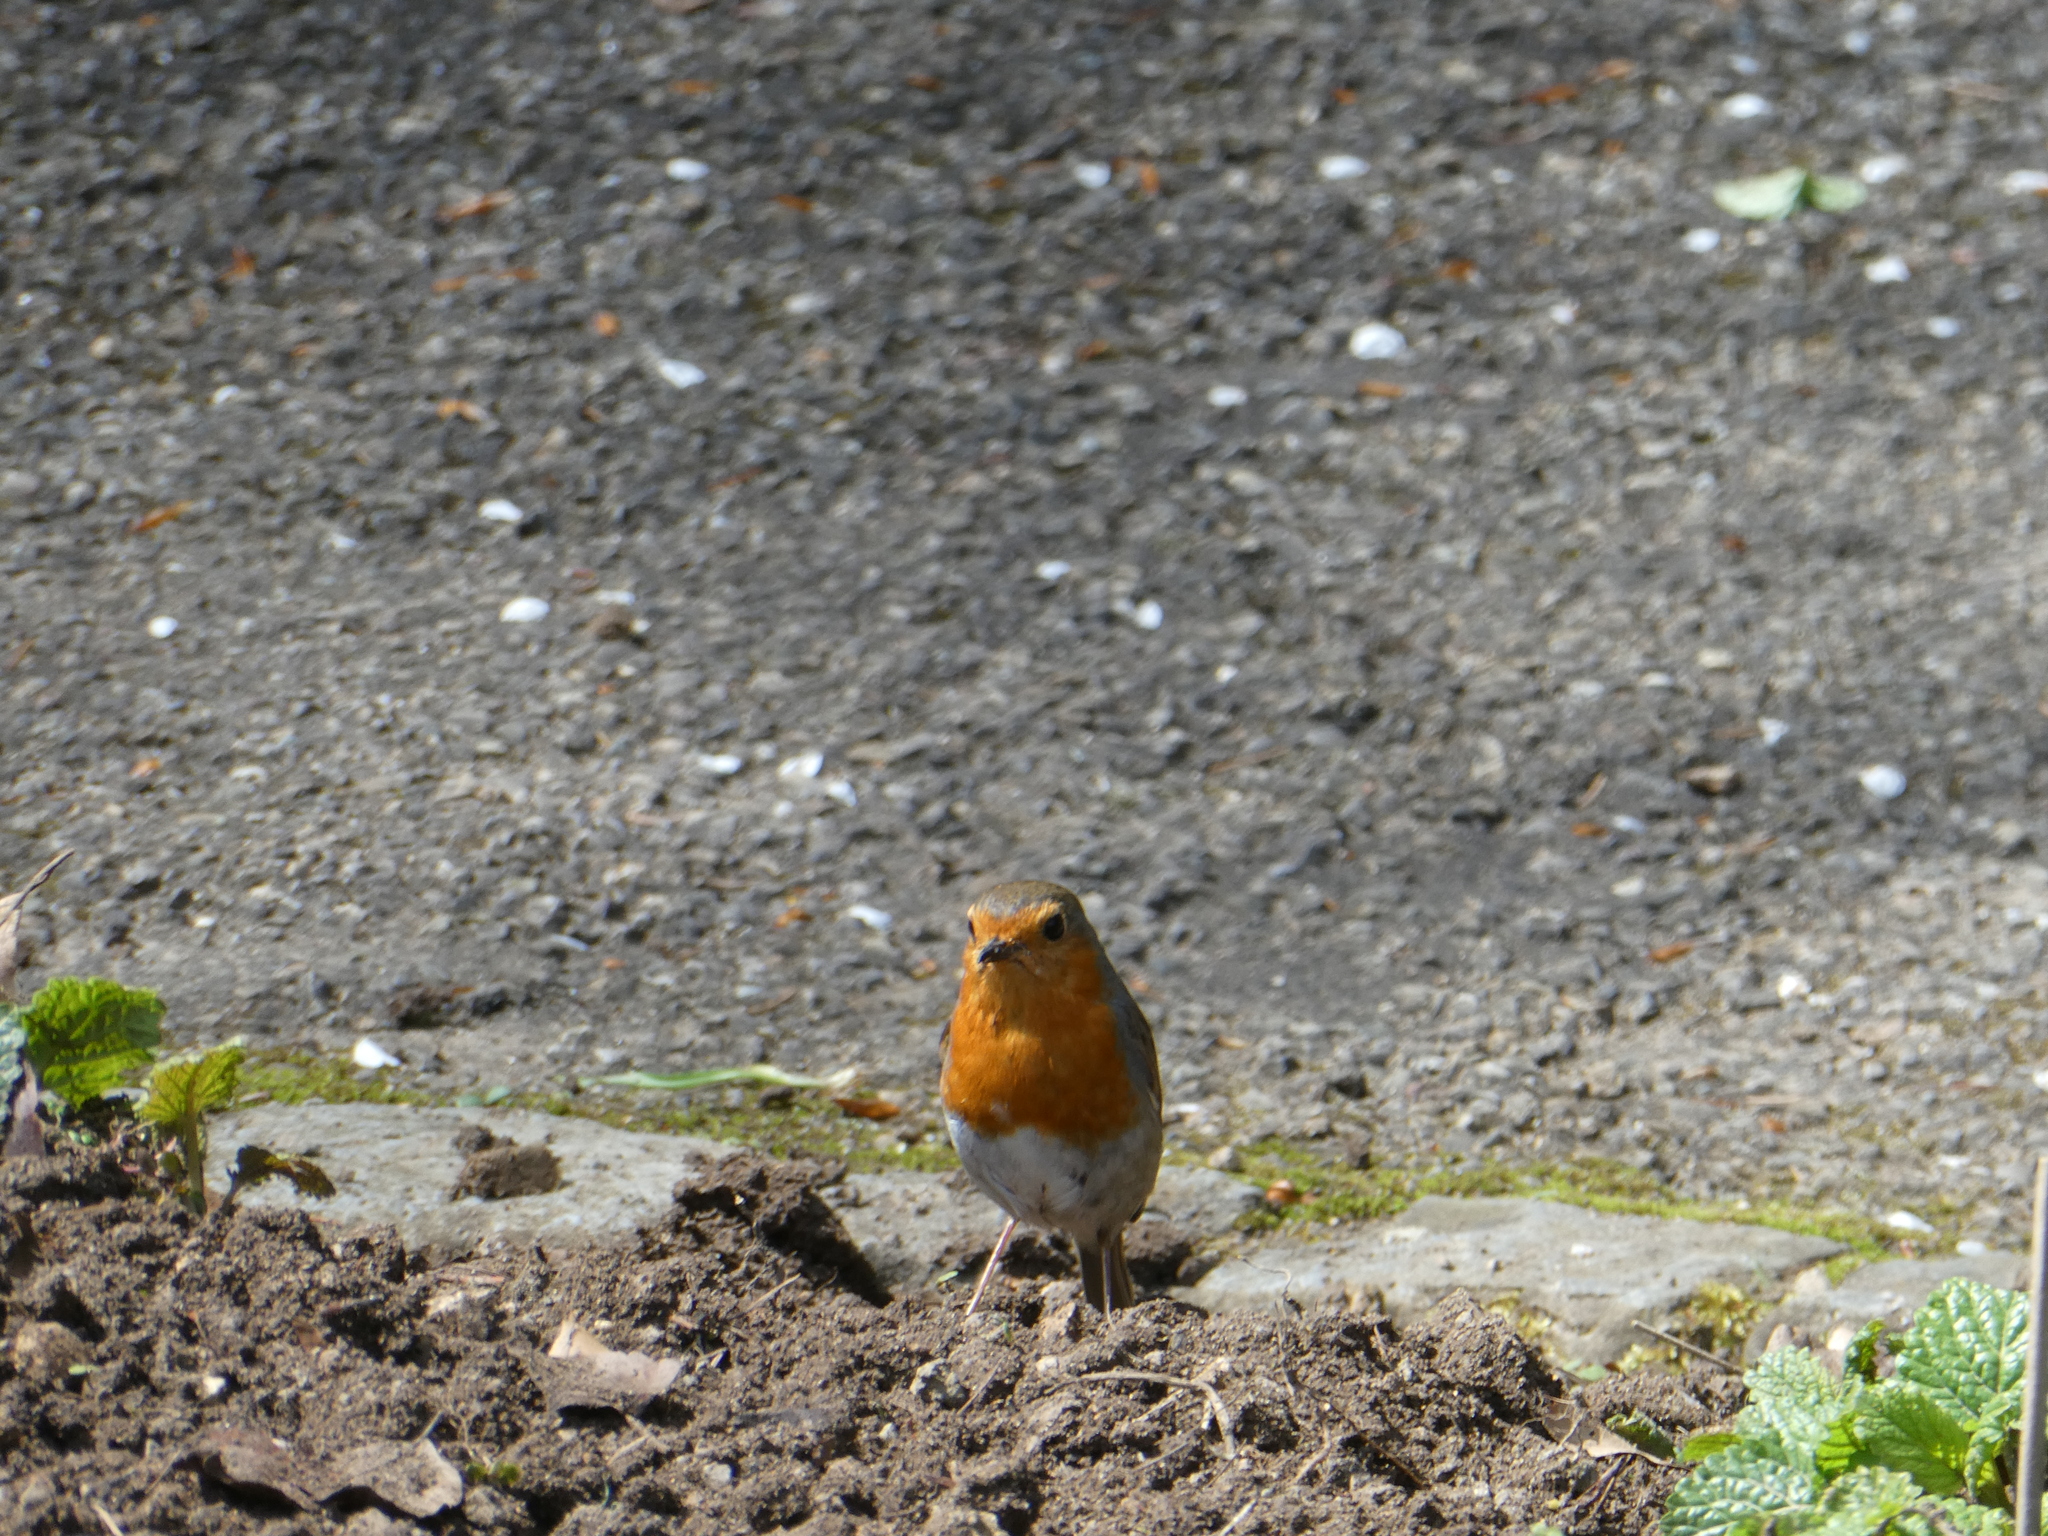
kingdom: Animalia
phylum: Chordata
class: Aves
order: Passeriformes
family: Muscicapidae
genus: Erithacus
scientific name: Erithacus rubecula
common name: European robin
